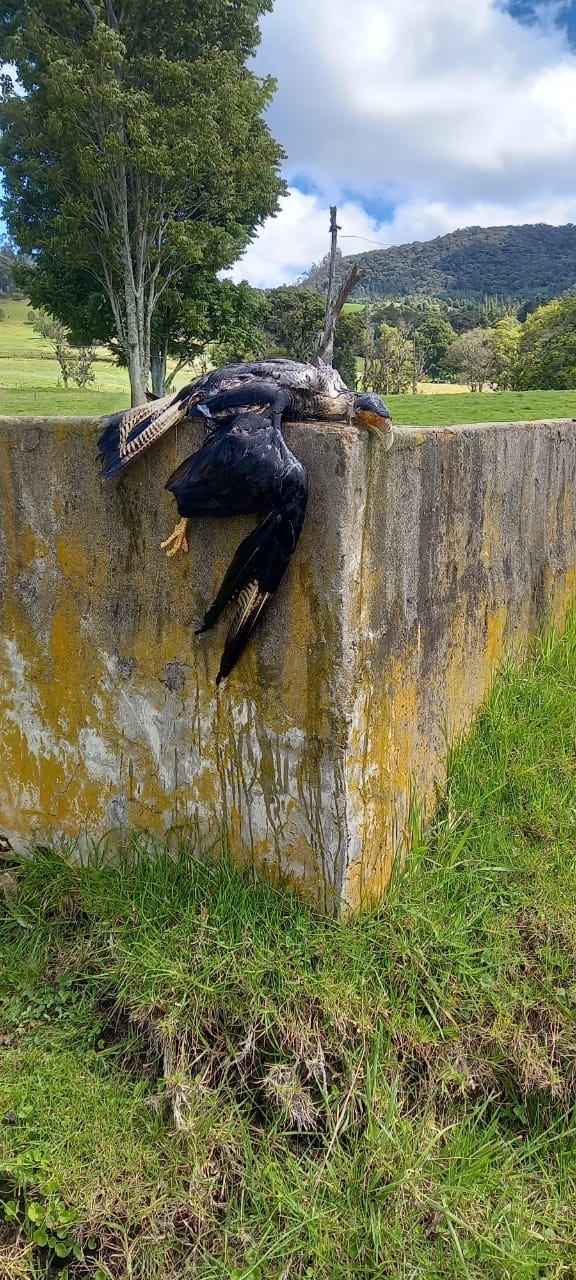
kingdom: Animalia
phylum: Chordata
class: Aves
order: Falconiformes
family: Falconidae
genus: Caracara
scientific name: Caracara plancus
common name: Southern caracara
